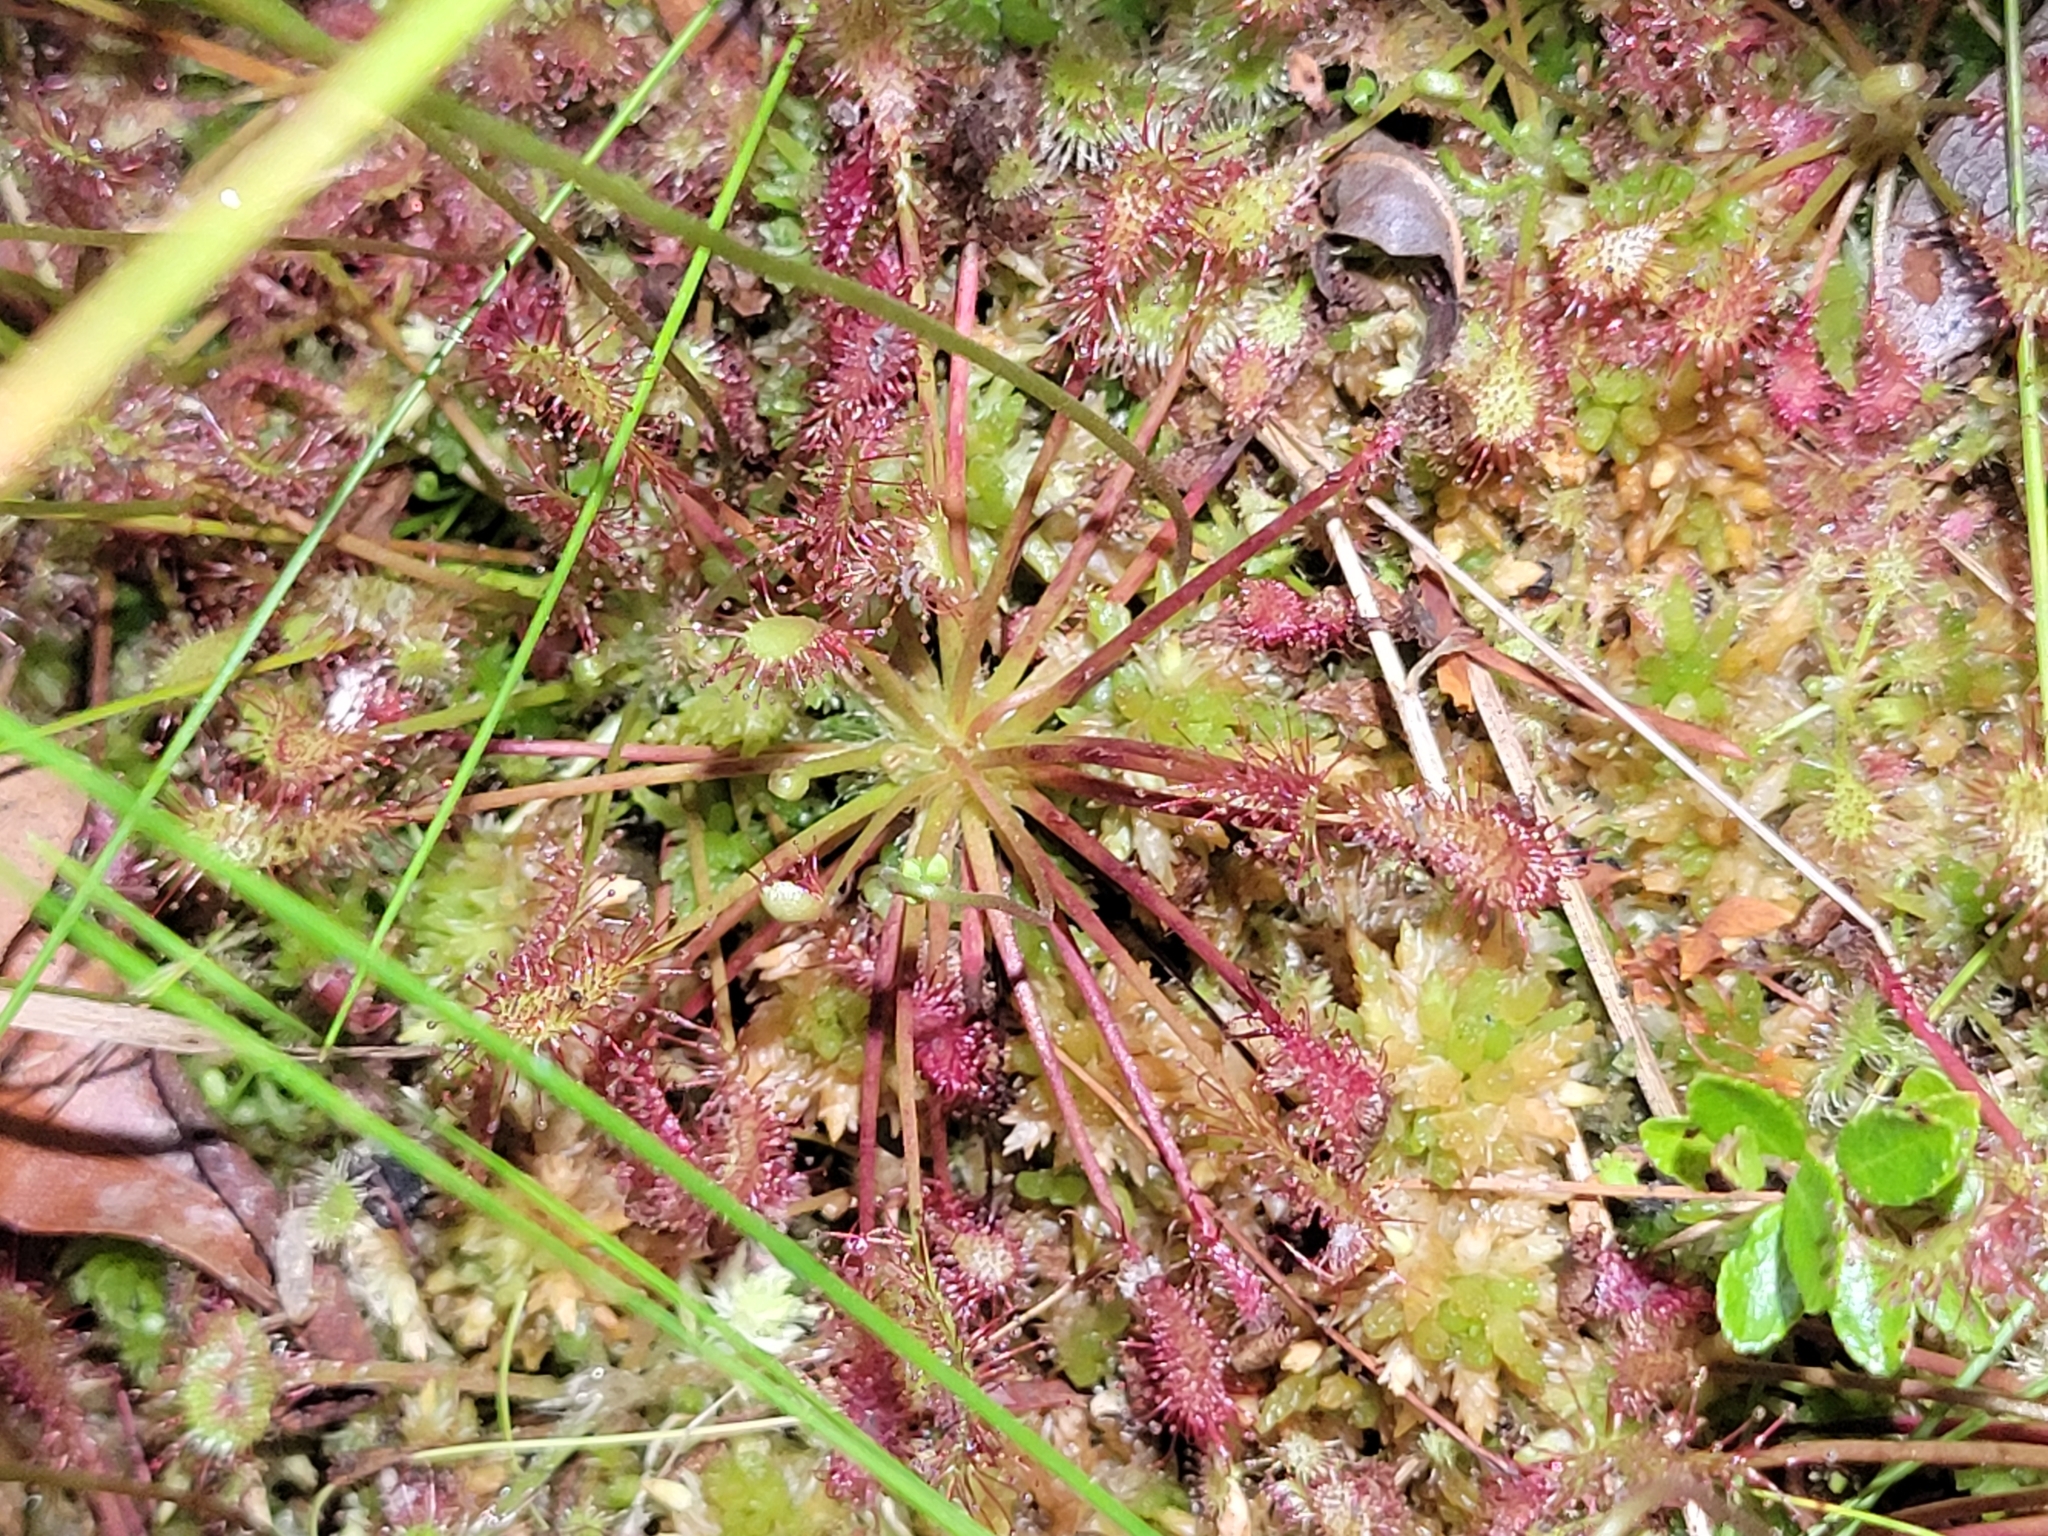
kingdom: Plantae
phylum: Tracheophyta
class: Magnoliopsida
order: Caryophyllales
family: Droseraceae
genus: Drosera
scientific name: Drosera intermedia
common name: Oblong-leaved sundew
